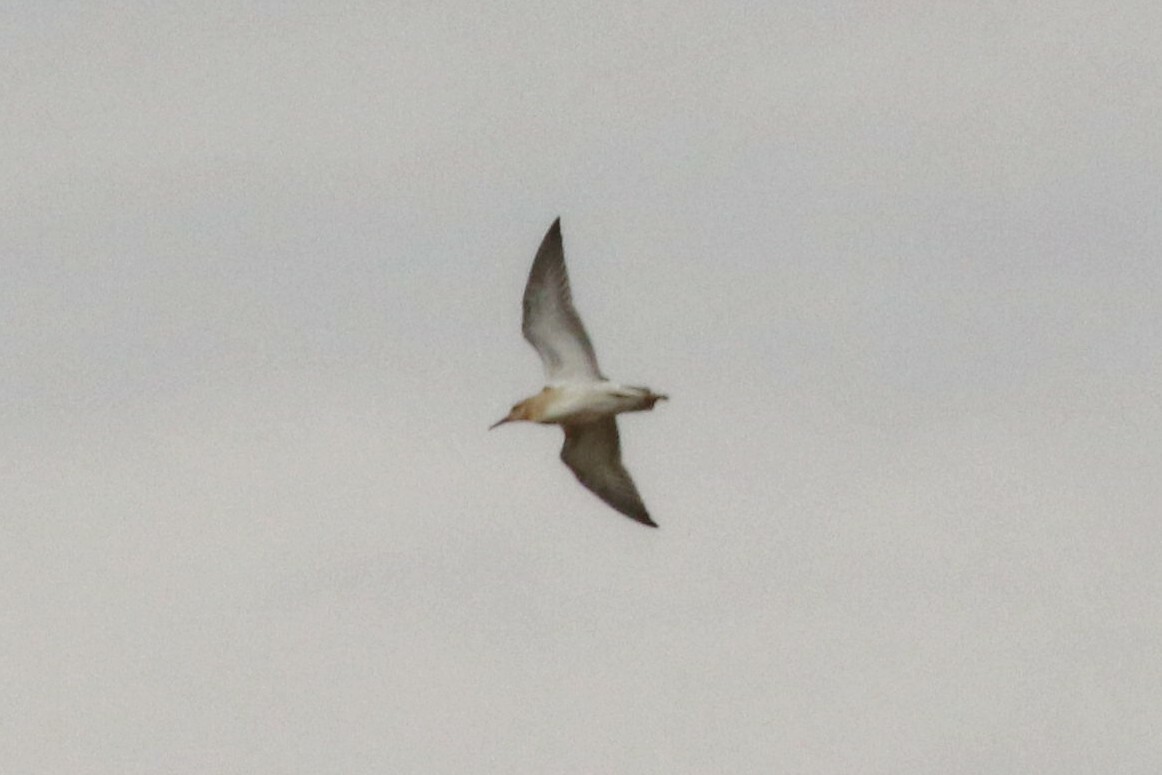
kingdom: Animalia
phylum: Chordata
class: Aves
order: Charadriiformes
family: Scolopacidae
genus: Calidris
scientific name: Calidris pugnax
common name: Ruff
